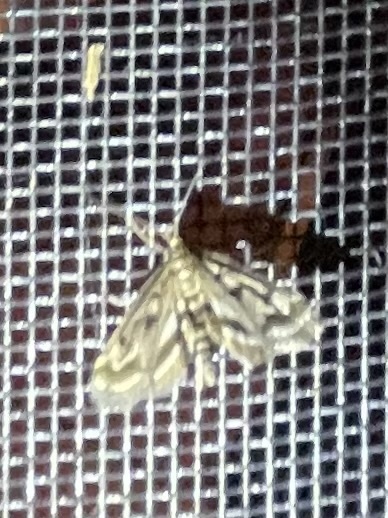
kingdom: Animalia
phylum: Arthropoda
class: Insecta
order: Lepidoptera
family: Crambidae
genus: Parapoynx
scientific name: Parapoynx obscuralis
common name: American china-mark
